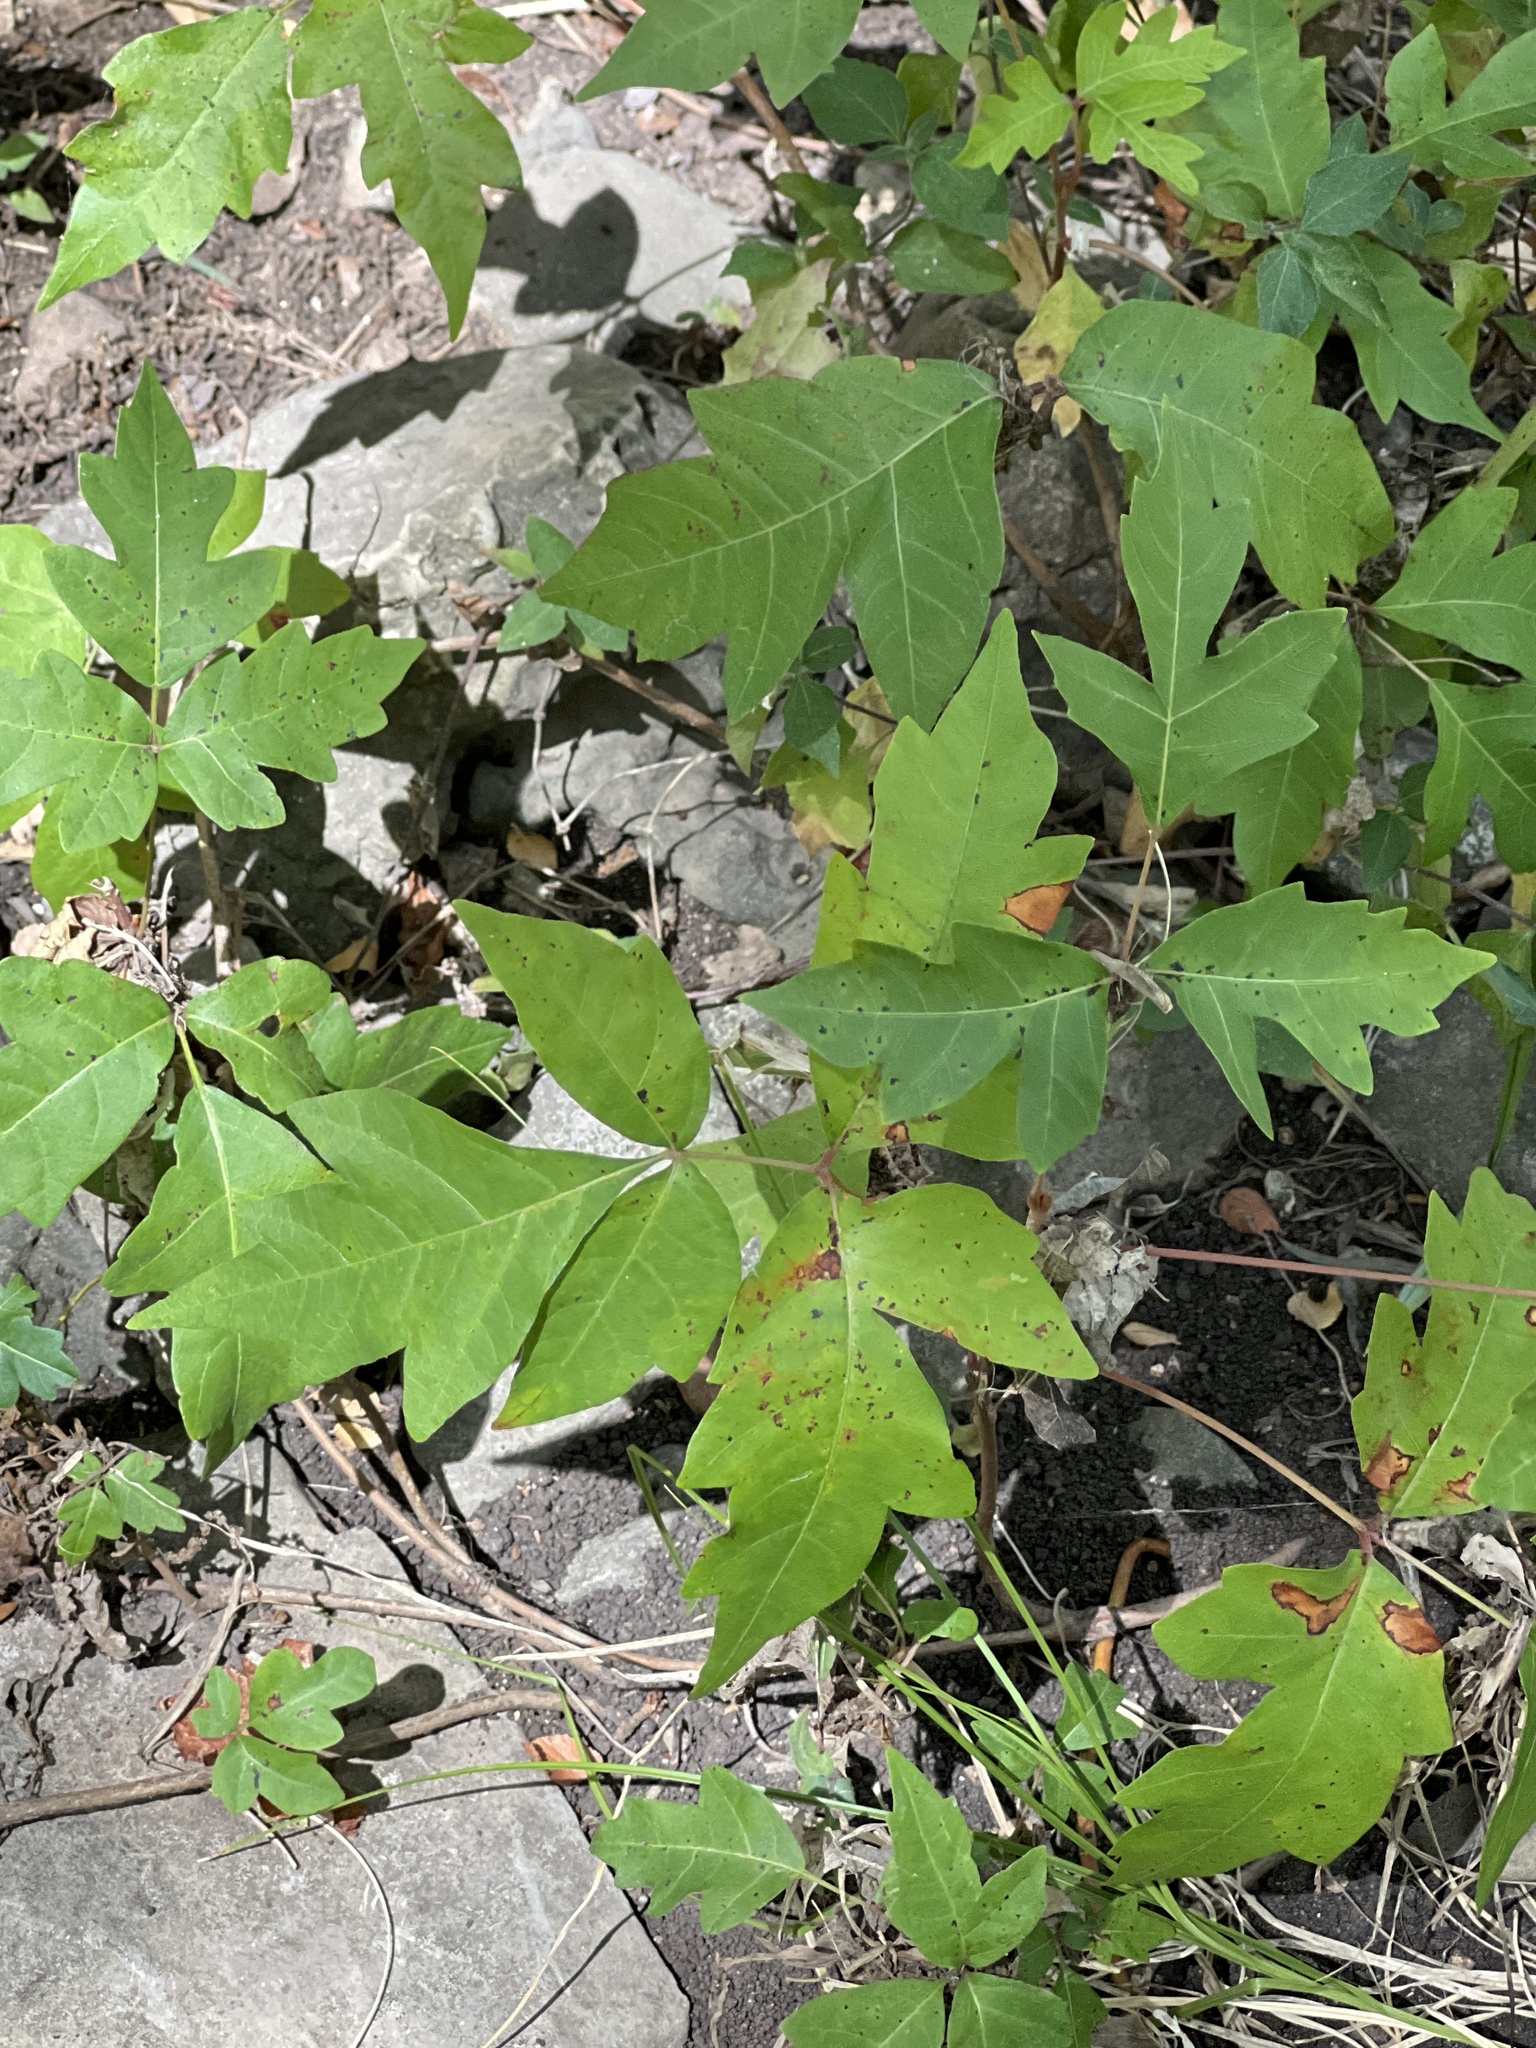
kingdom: Plantae
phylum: Tracheophyta
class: Magnoliopsida
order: Sapindales
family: Anacardiaceae
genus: Toxicodendron
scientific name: Toxicodendron radicans
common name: Poison ivy
